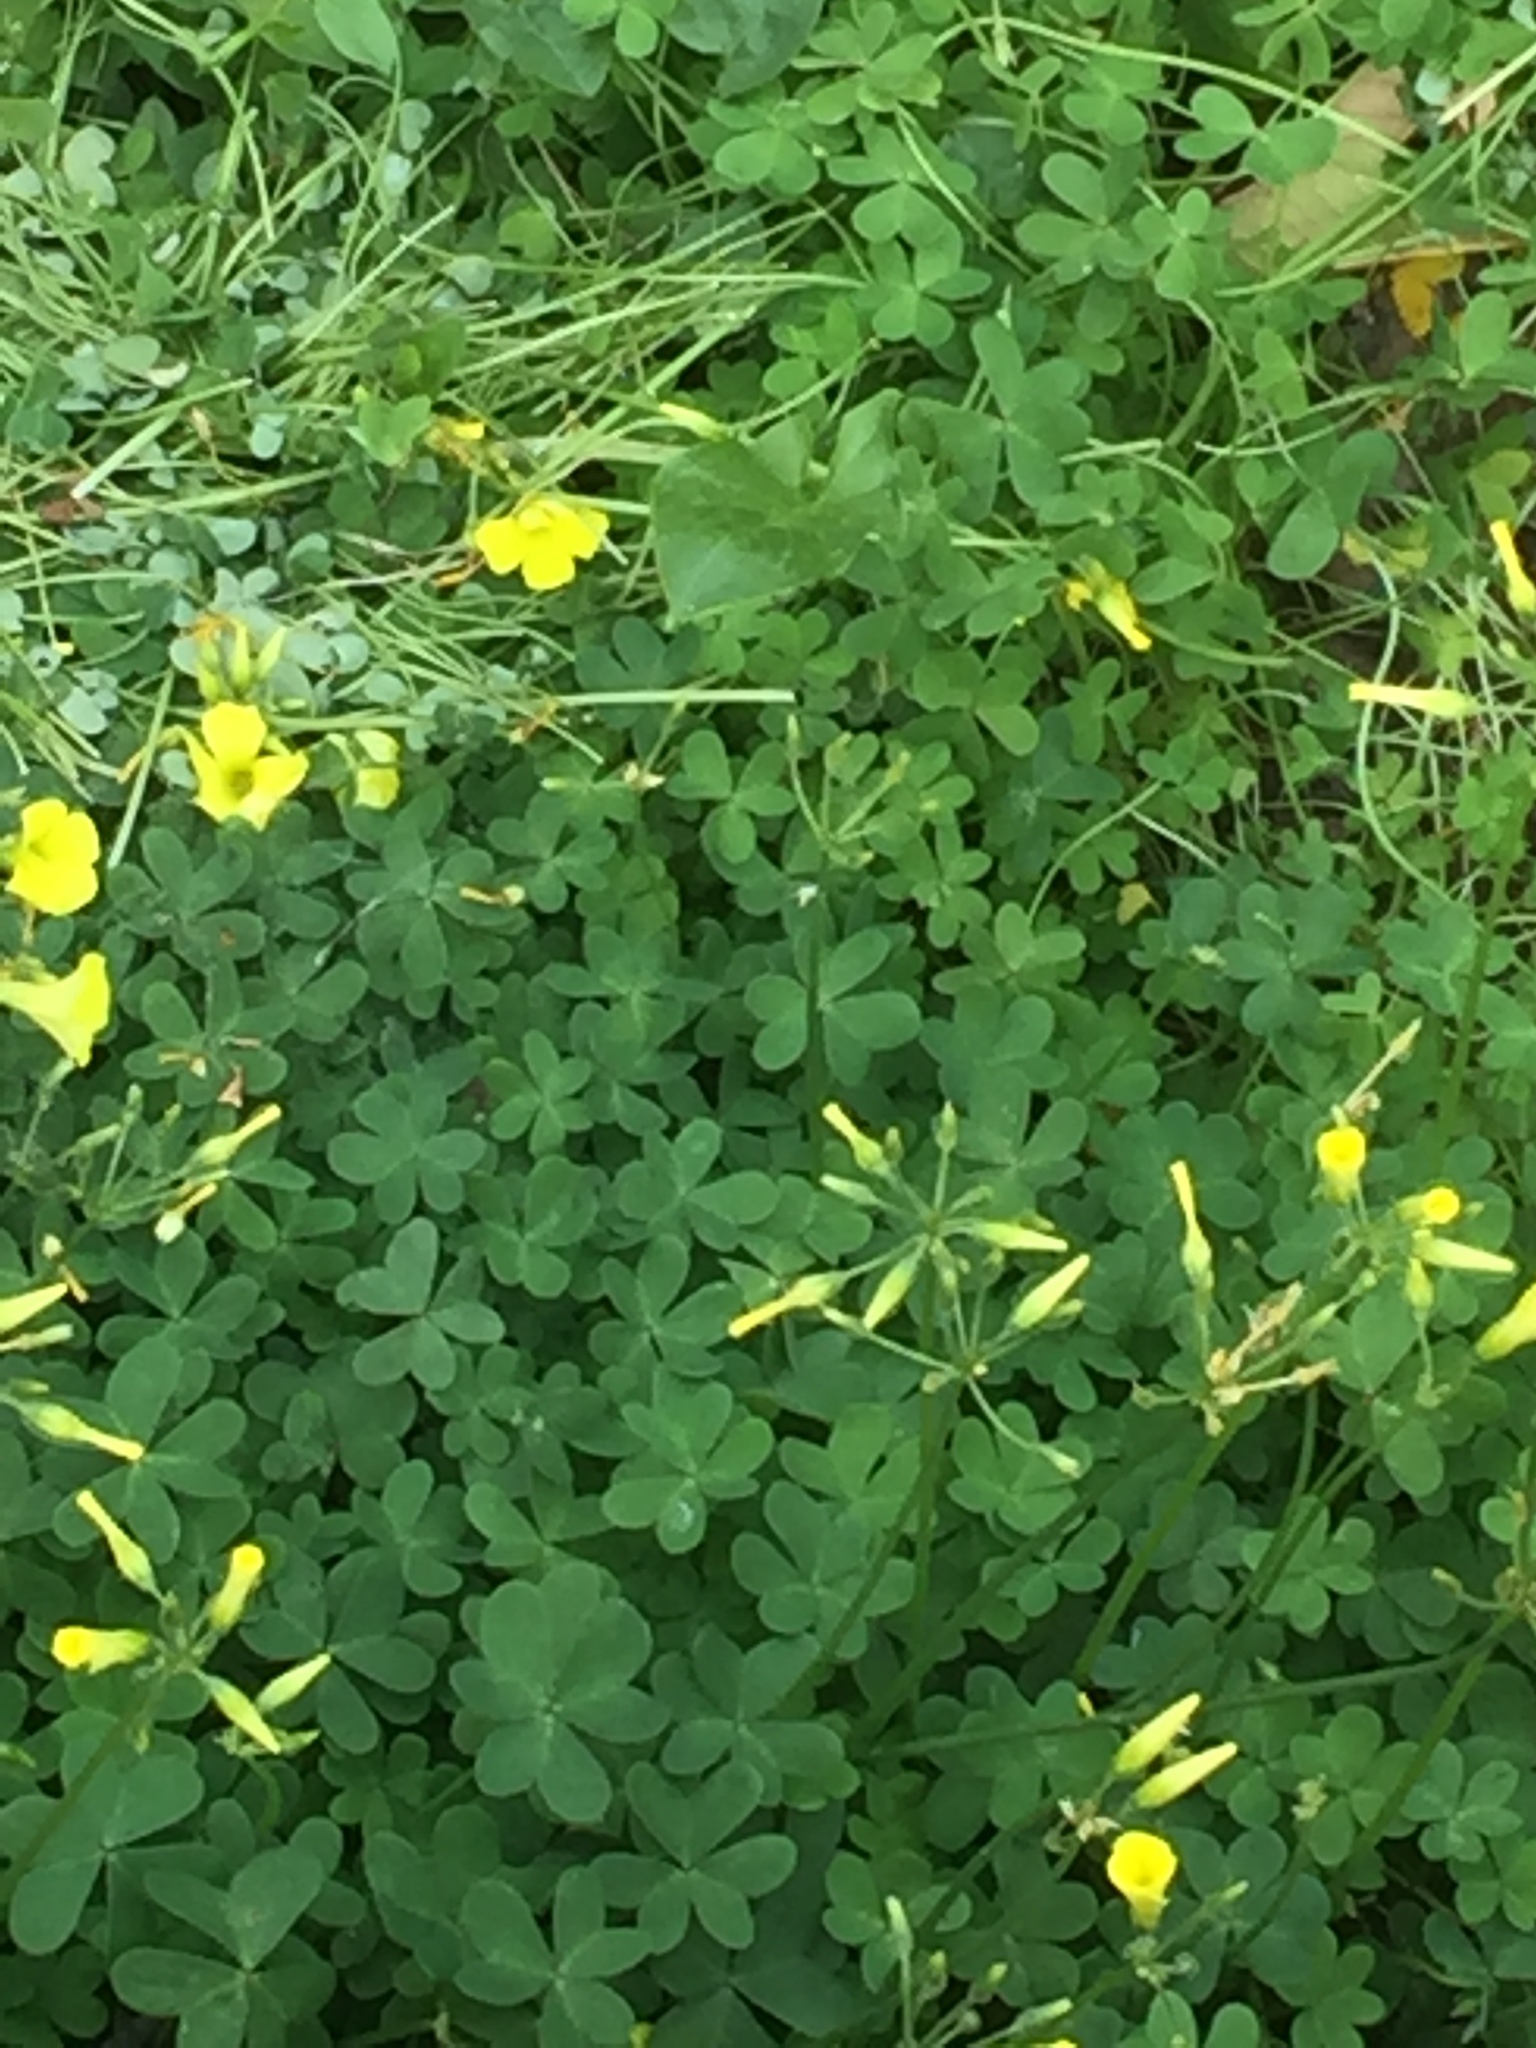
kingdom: Plantae
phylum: Tracheophyta
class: Magnoliopsida
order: Oxalidales
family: Oxalidaceae
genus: Oxalis
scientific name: Oxalis pes-caprae
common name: Bermuda-buttercup
